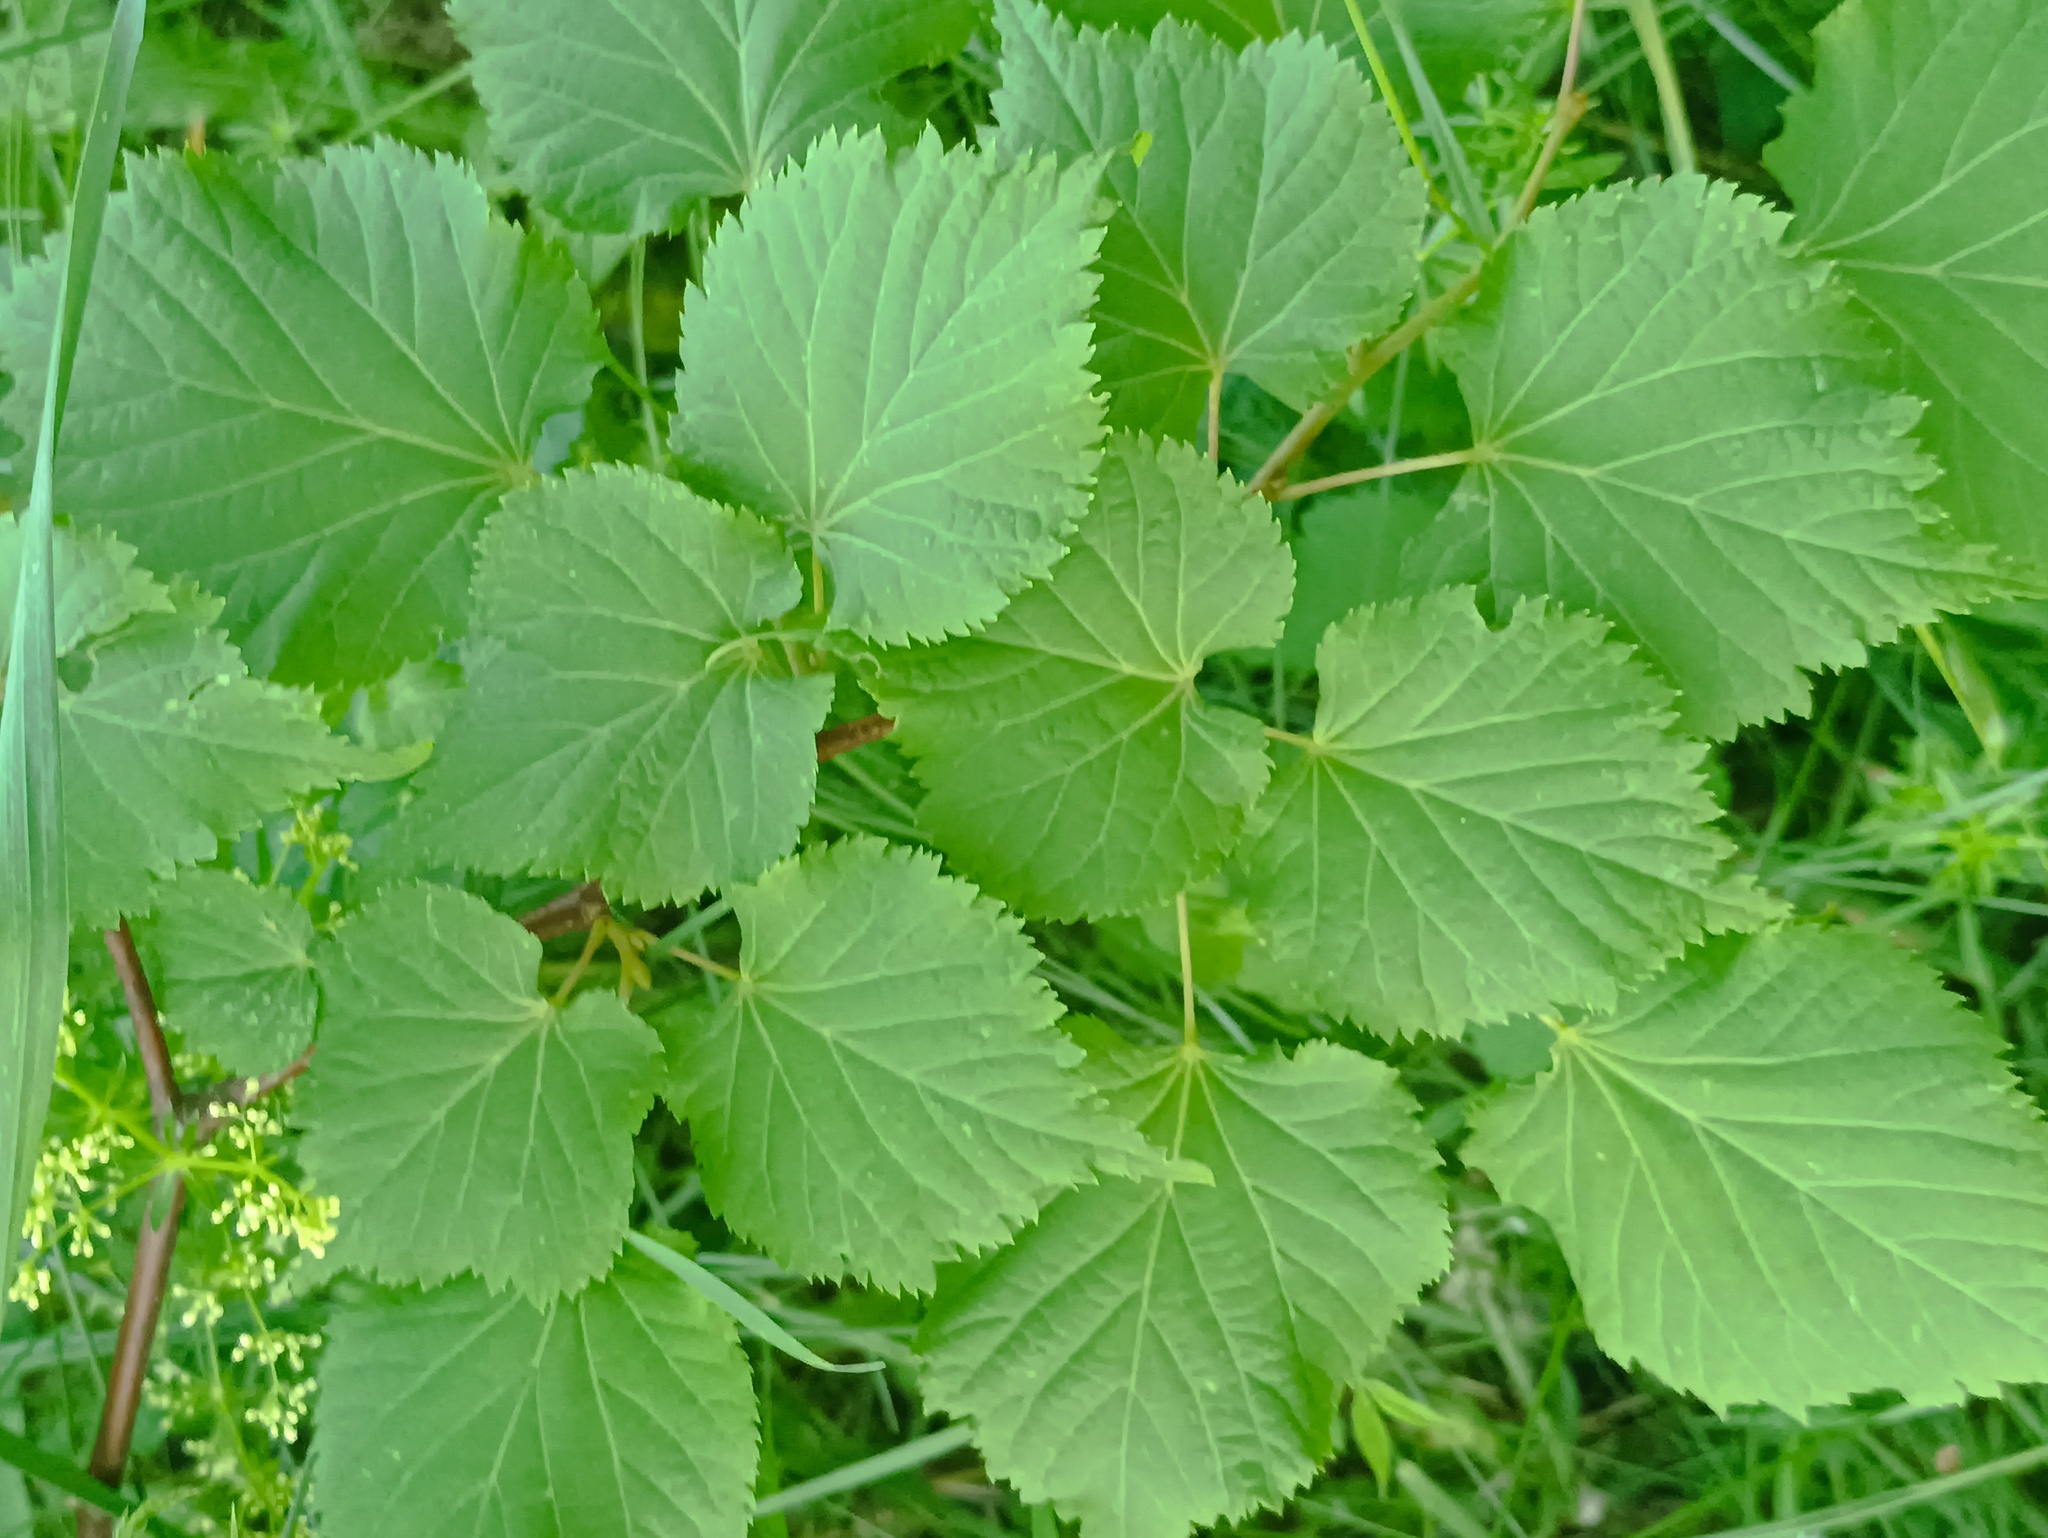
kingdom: Plantae
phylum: Tracheophyta
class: Magnoliopsida
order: Malvales
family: Malvaceae
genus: Tilia
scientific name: Tilia cordata
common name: Small-leaved lime
